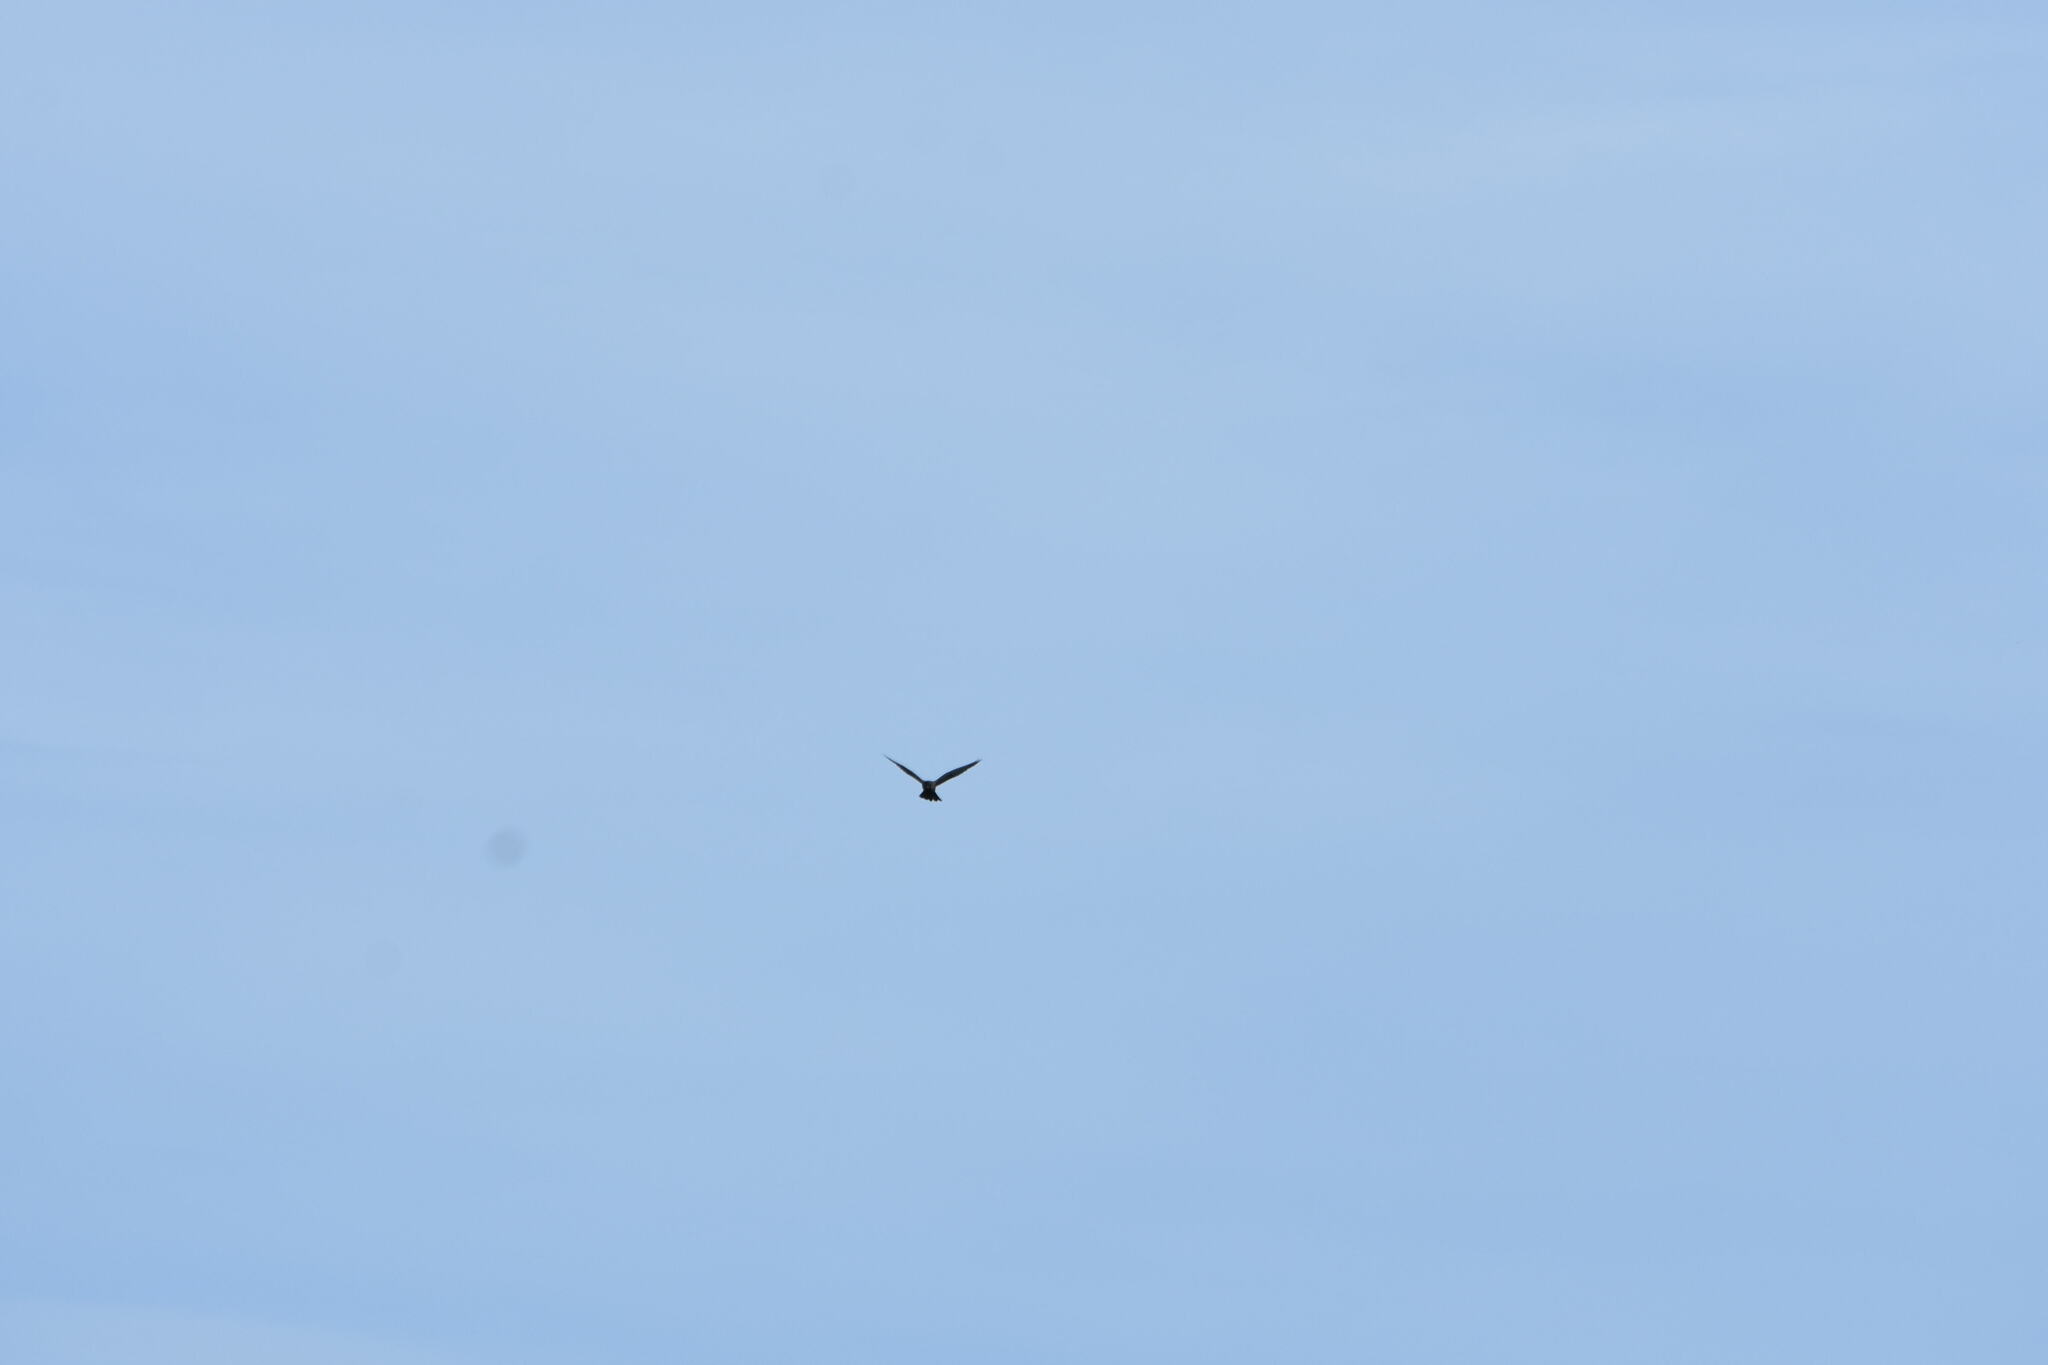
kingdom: Animalia
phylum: Chordata
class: Aves
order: Falconiformes
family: Falconidae
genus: Falco
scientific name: Falco tinnunculus
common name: Common kestrel
